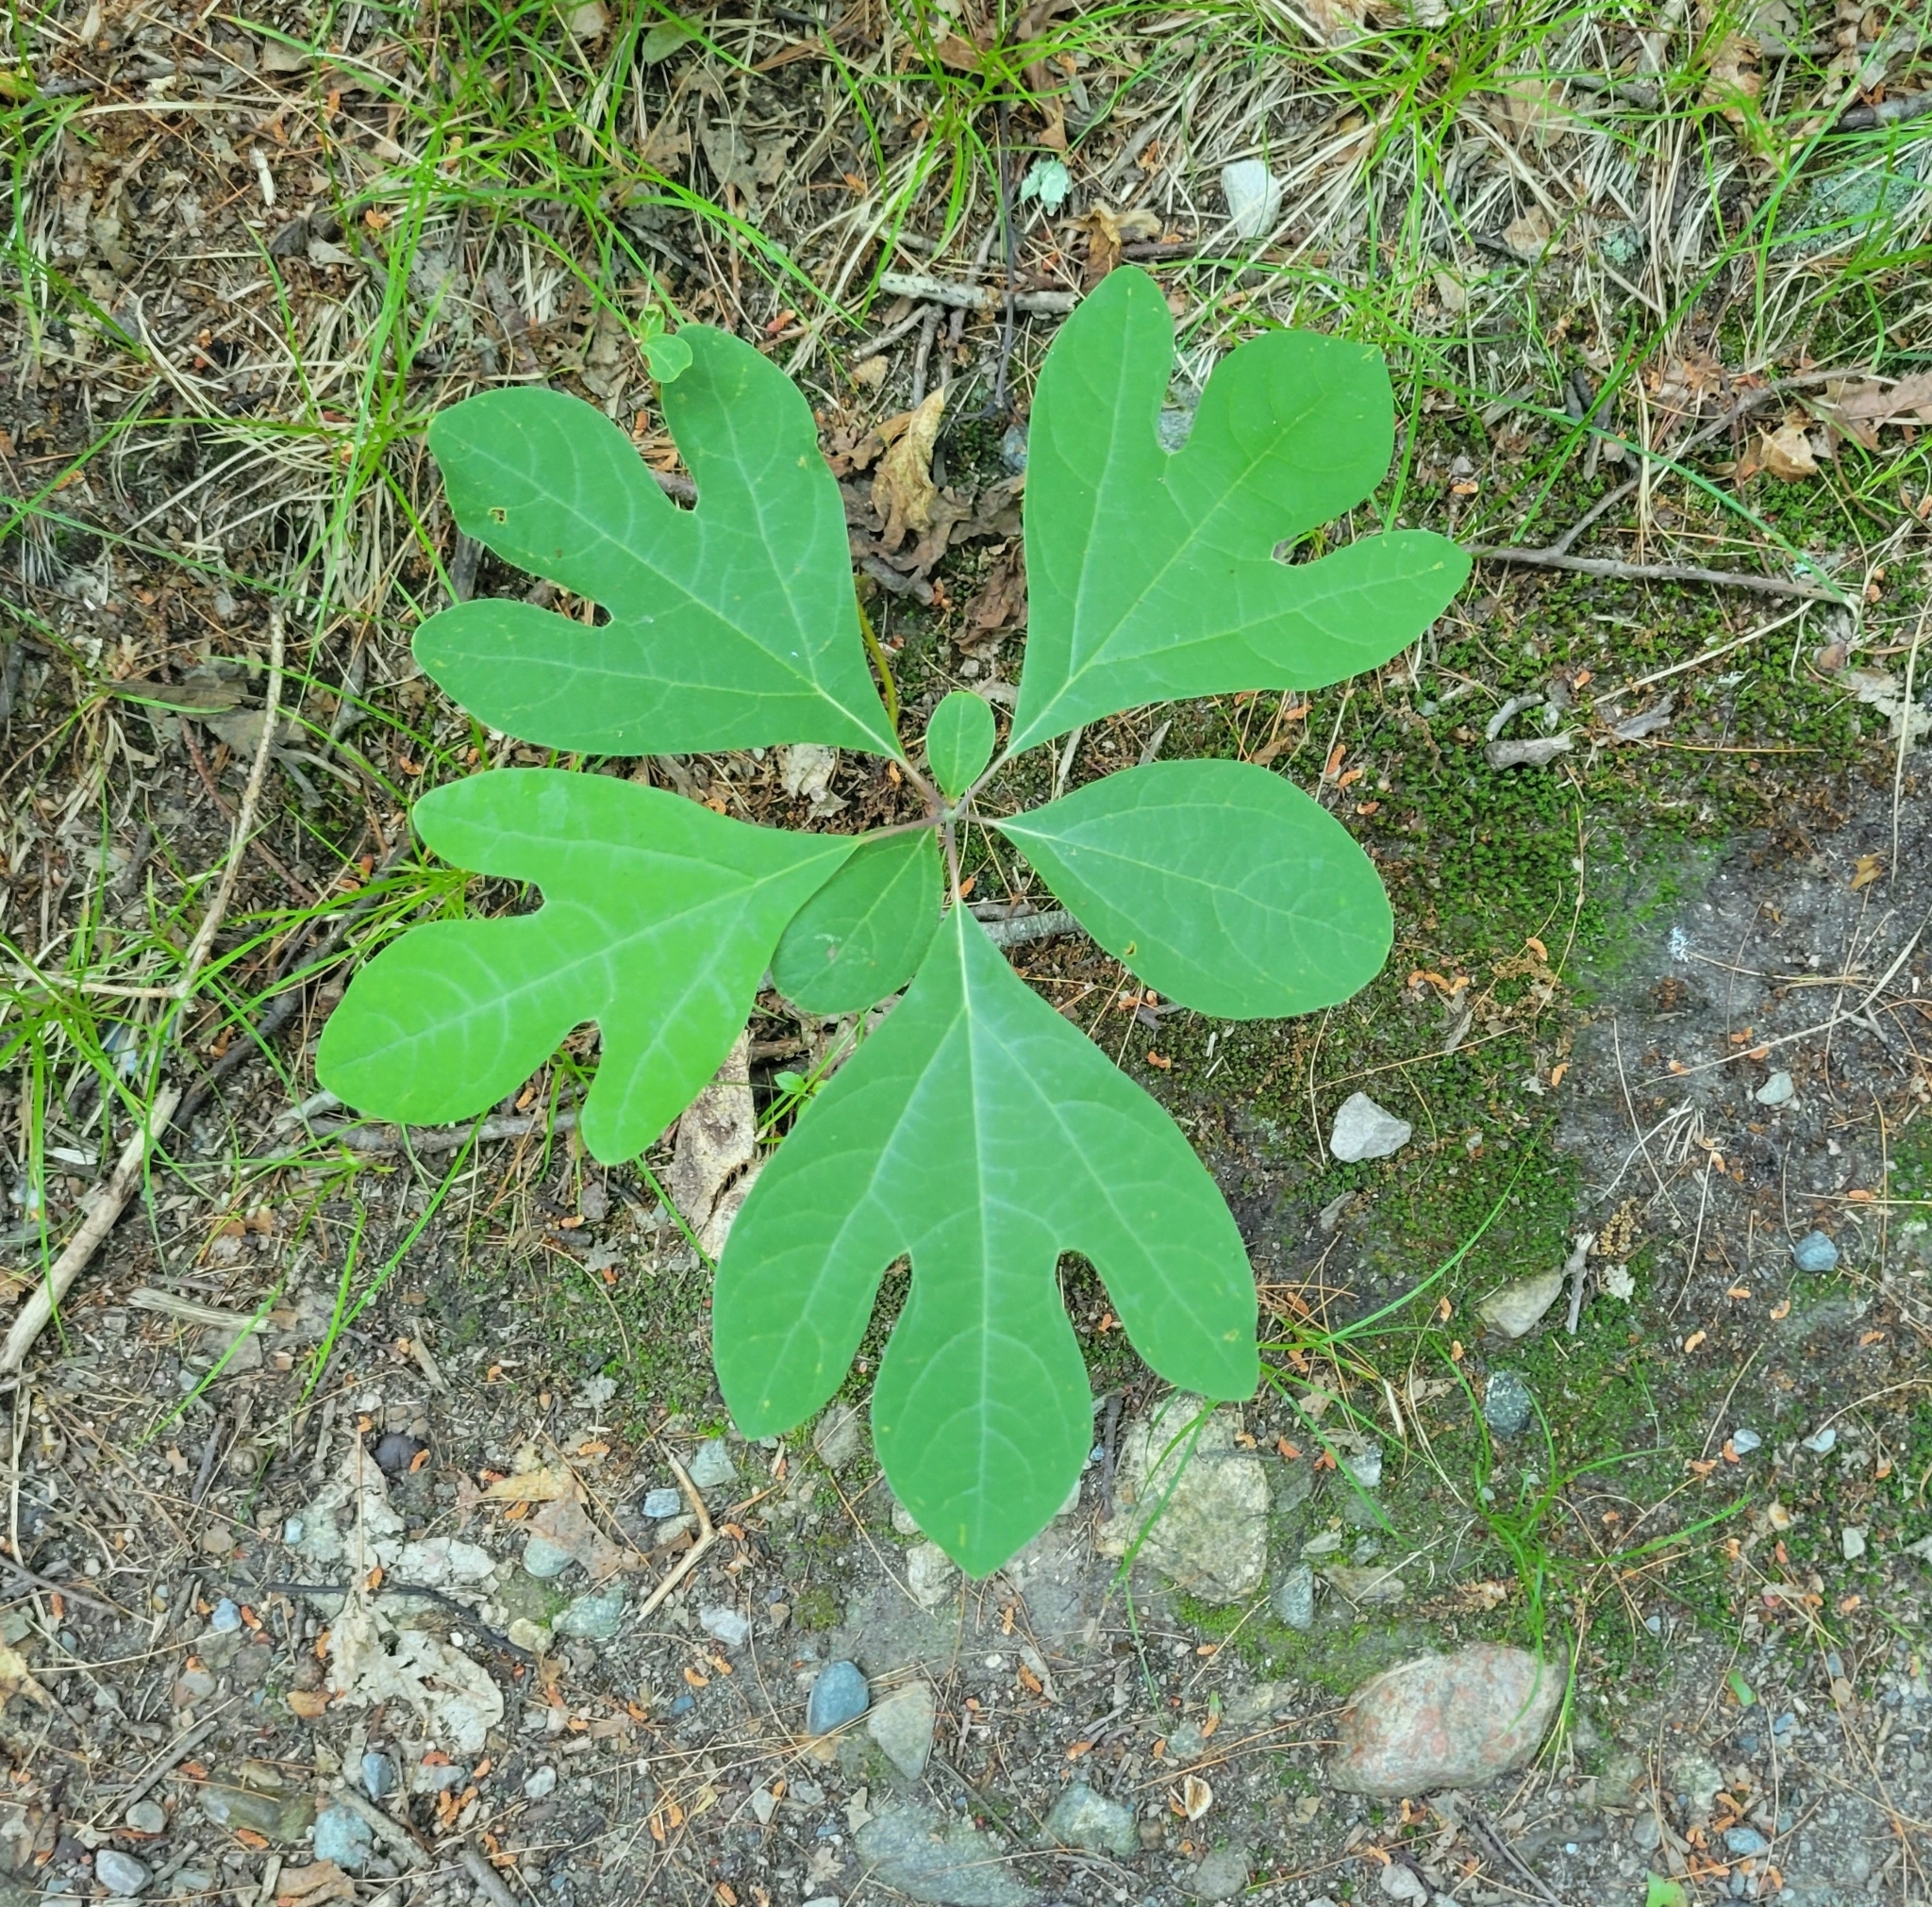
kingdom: Plantae
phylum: Tracheophyta
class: Magnoliopsida
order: Laurales
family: Lauraceae
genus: Sassafras
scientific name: Sassafras albidum
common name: Sassafras
